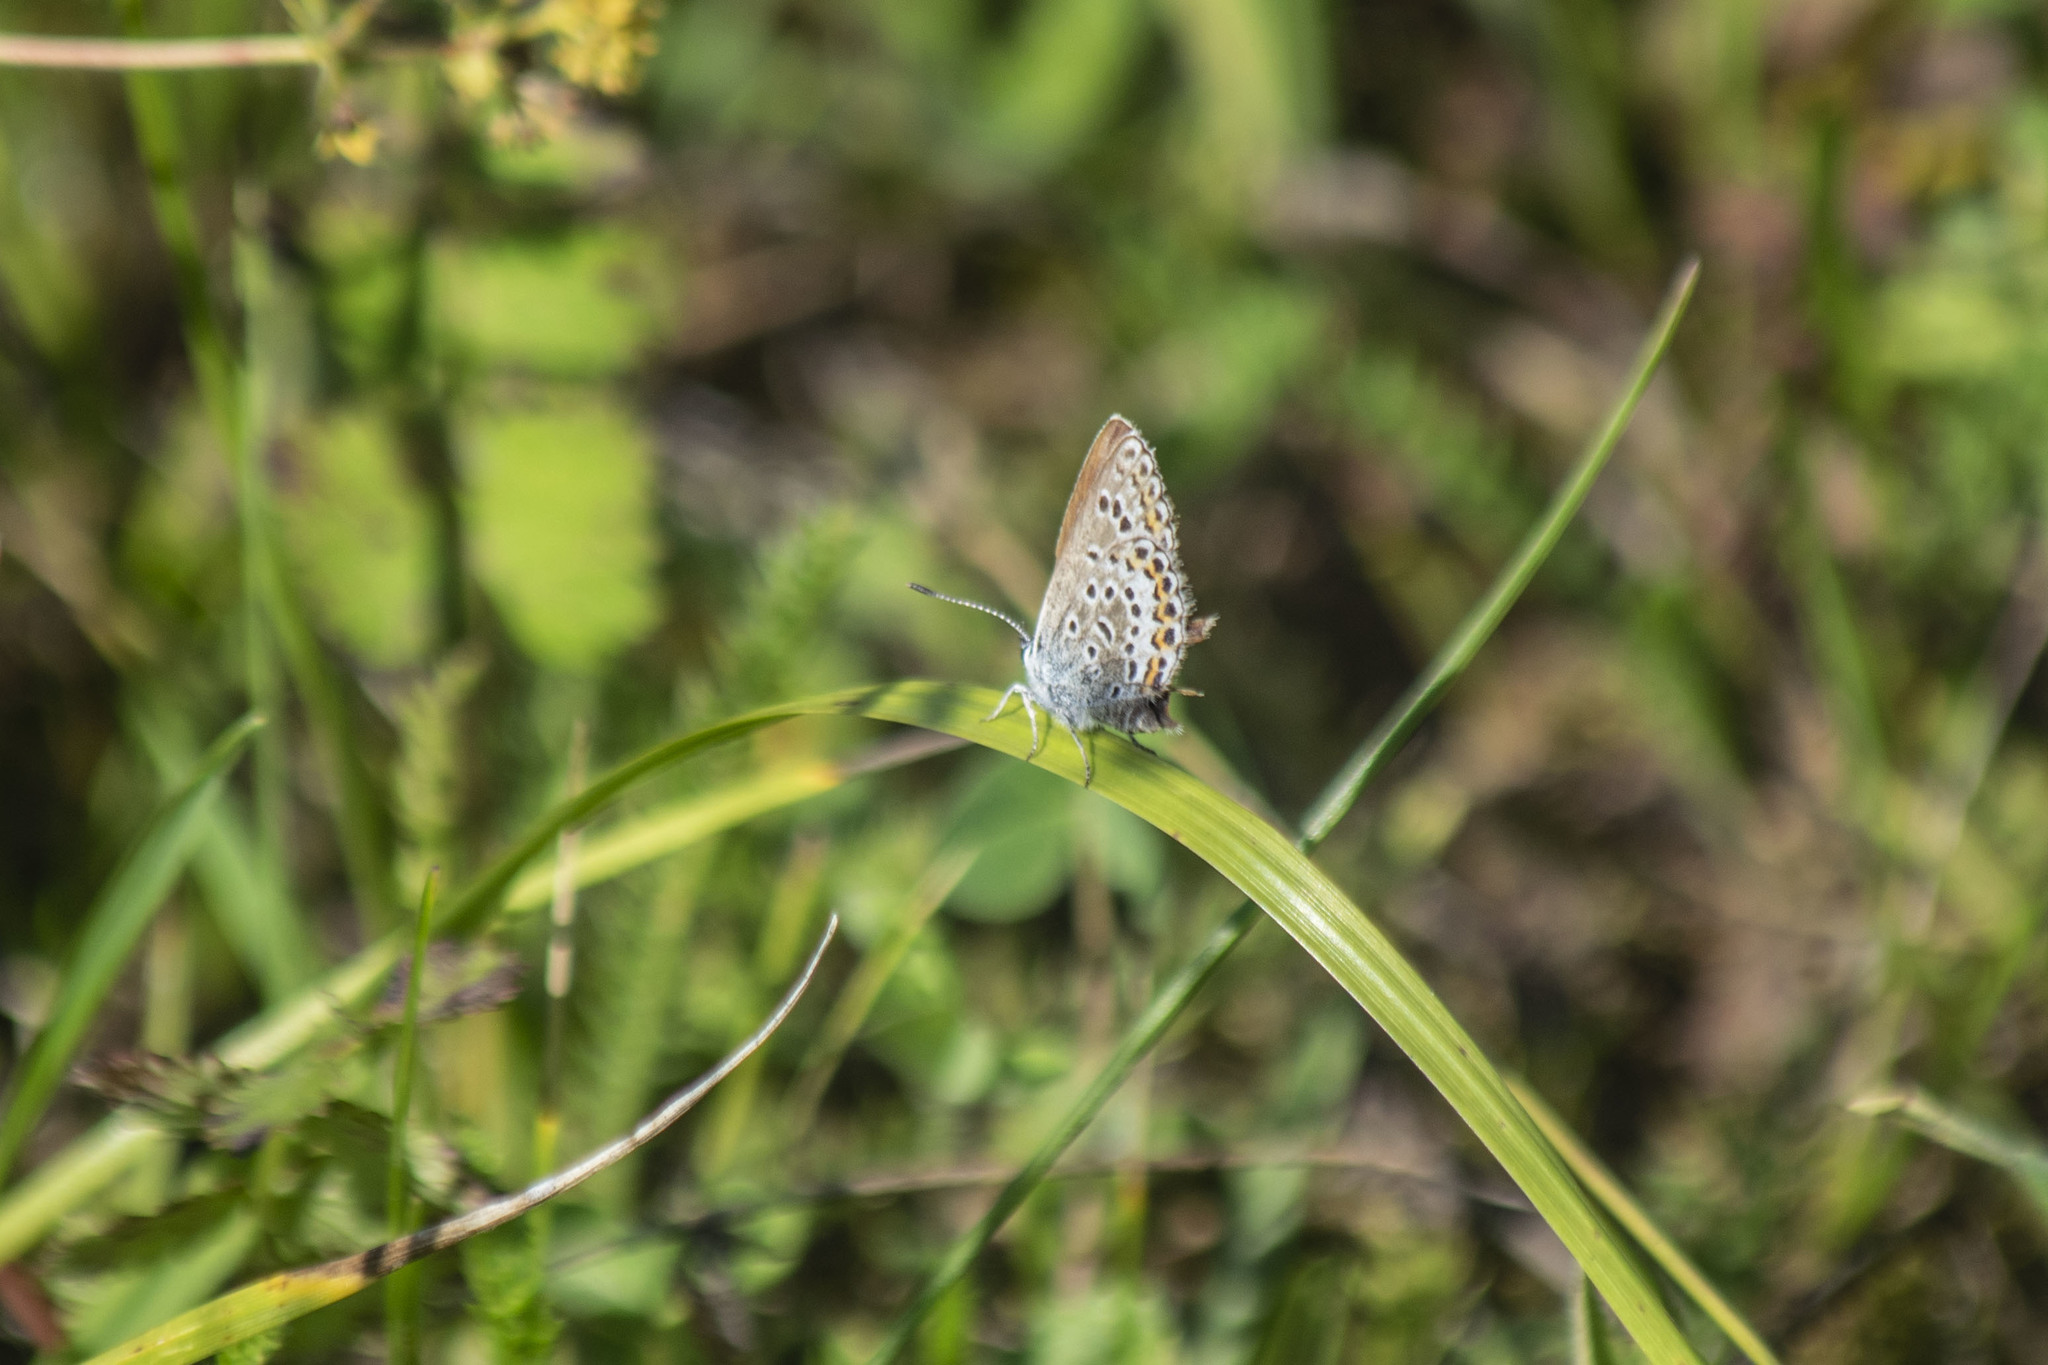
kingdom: Animalia
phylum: Arthropoda
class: Insecta
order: Lepidoptera
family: Lycaenidae
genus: Plebejus
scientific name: Plebejus argus
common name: Silver-studded blue
